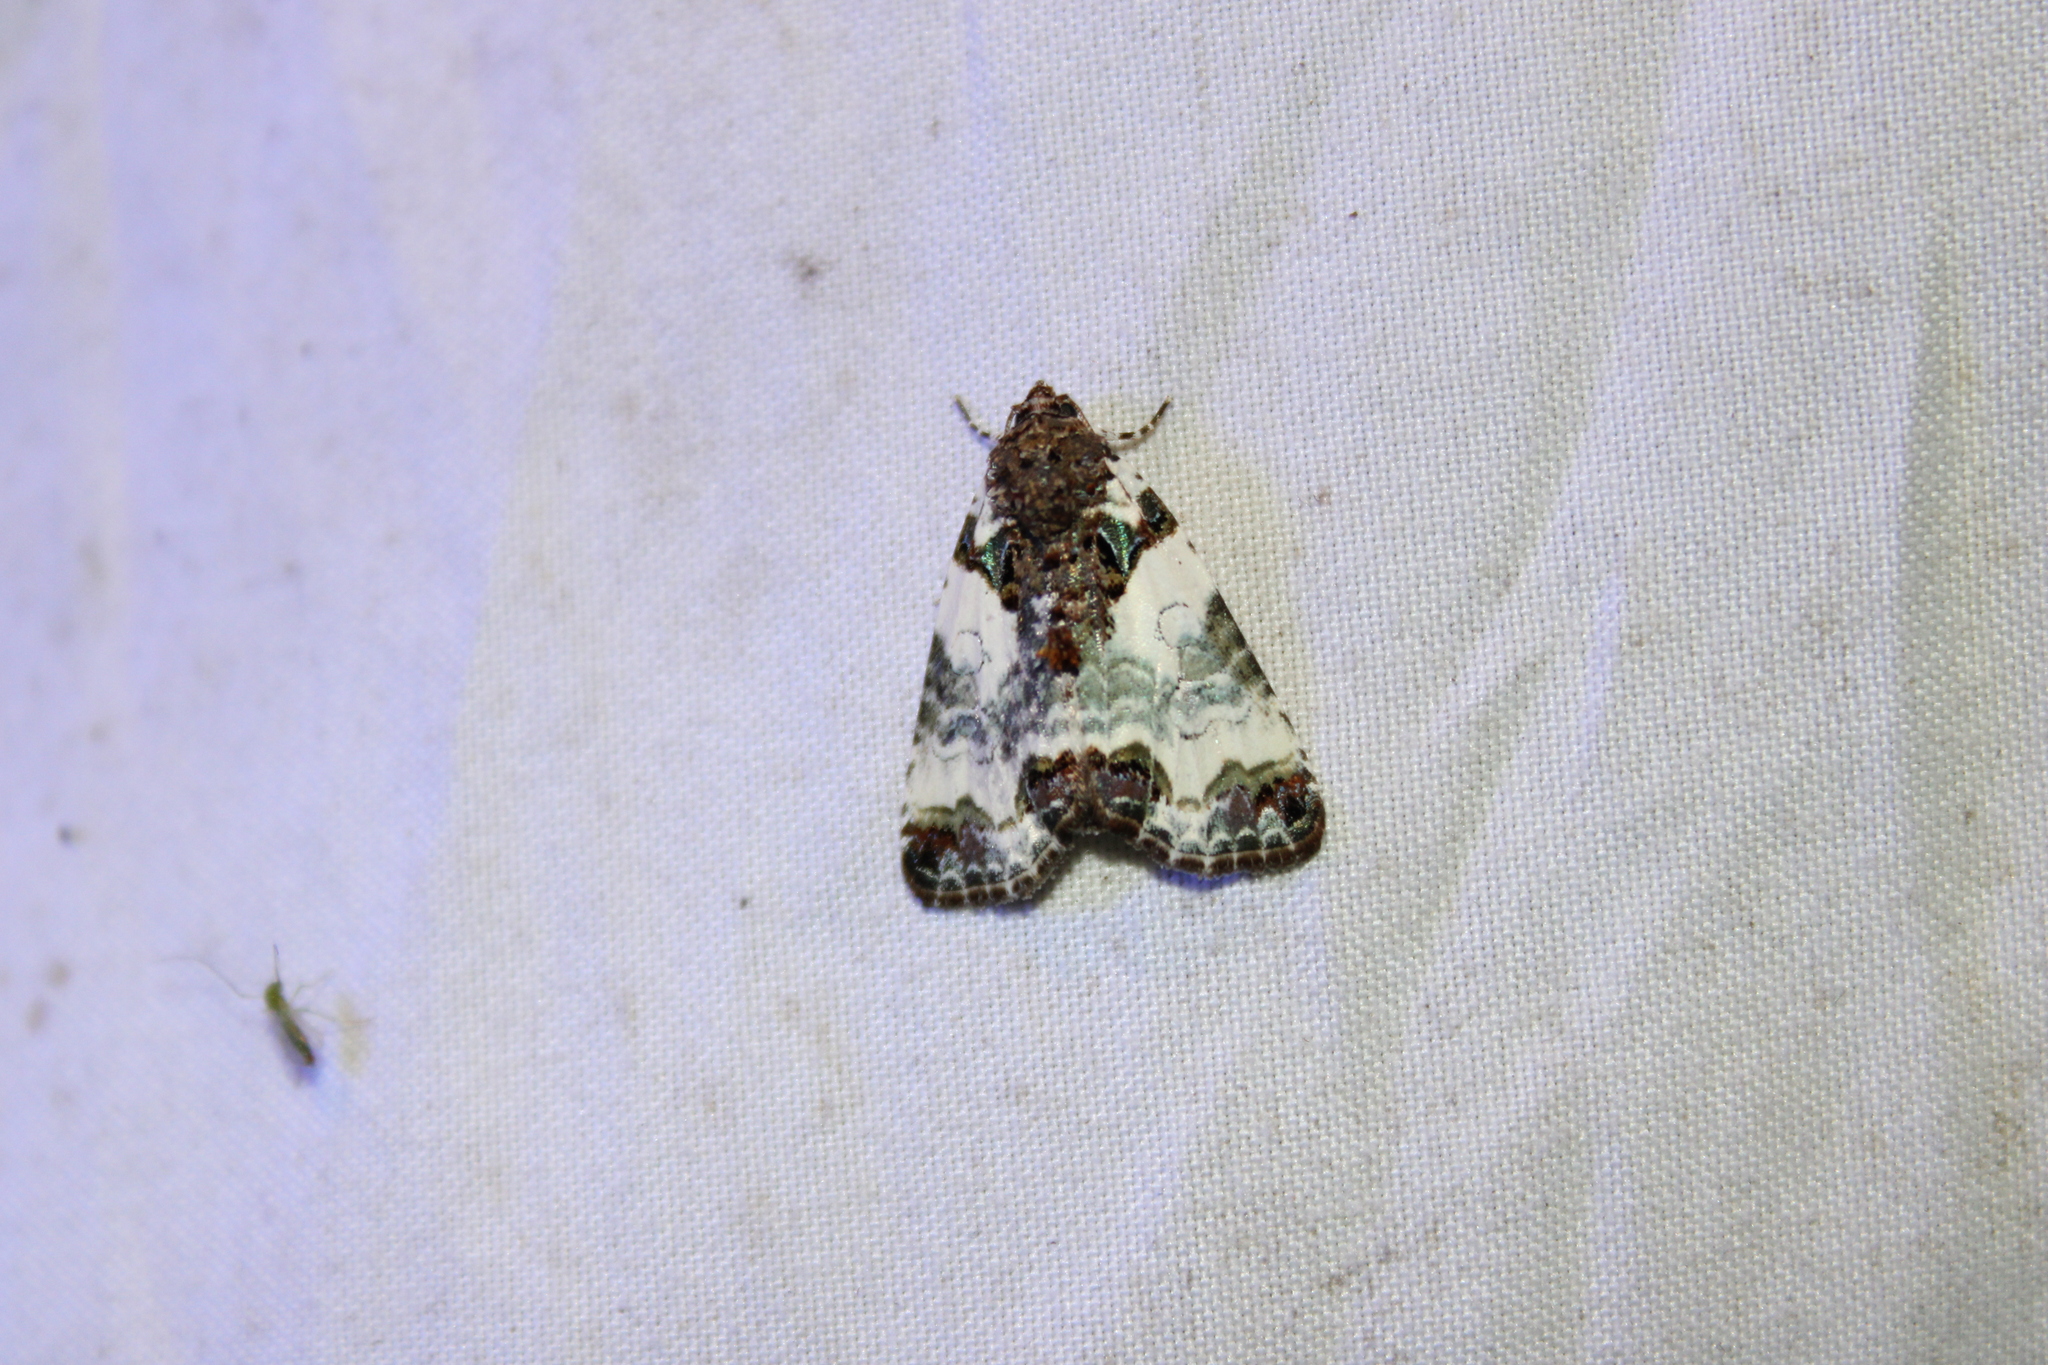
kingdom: Animalia
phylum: Arthropoda
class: Insecta
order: Lepidoptera
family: Noctuidae
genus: Cerma
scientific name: Cerma cerintha
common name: Tufted bird-dropping moth
